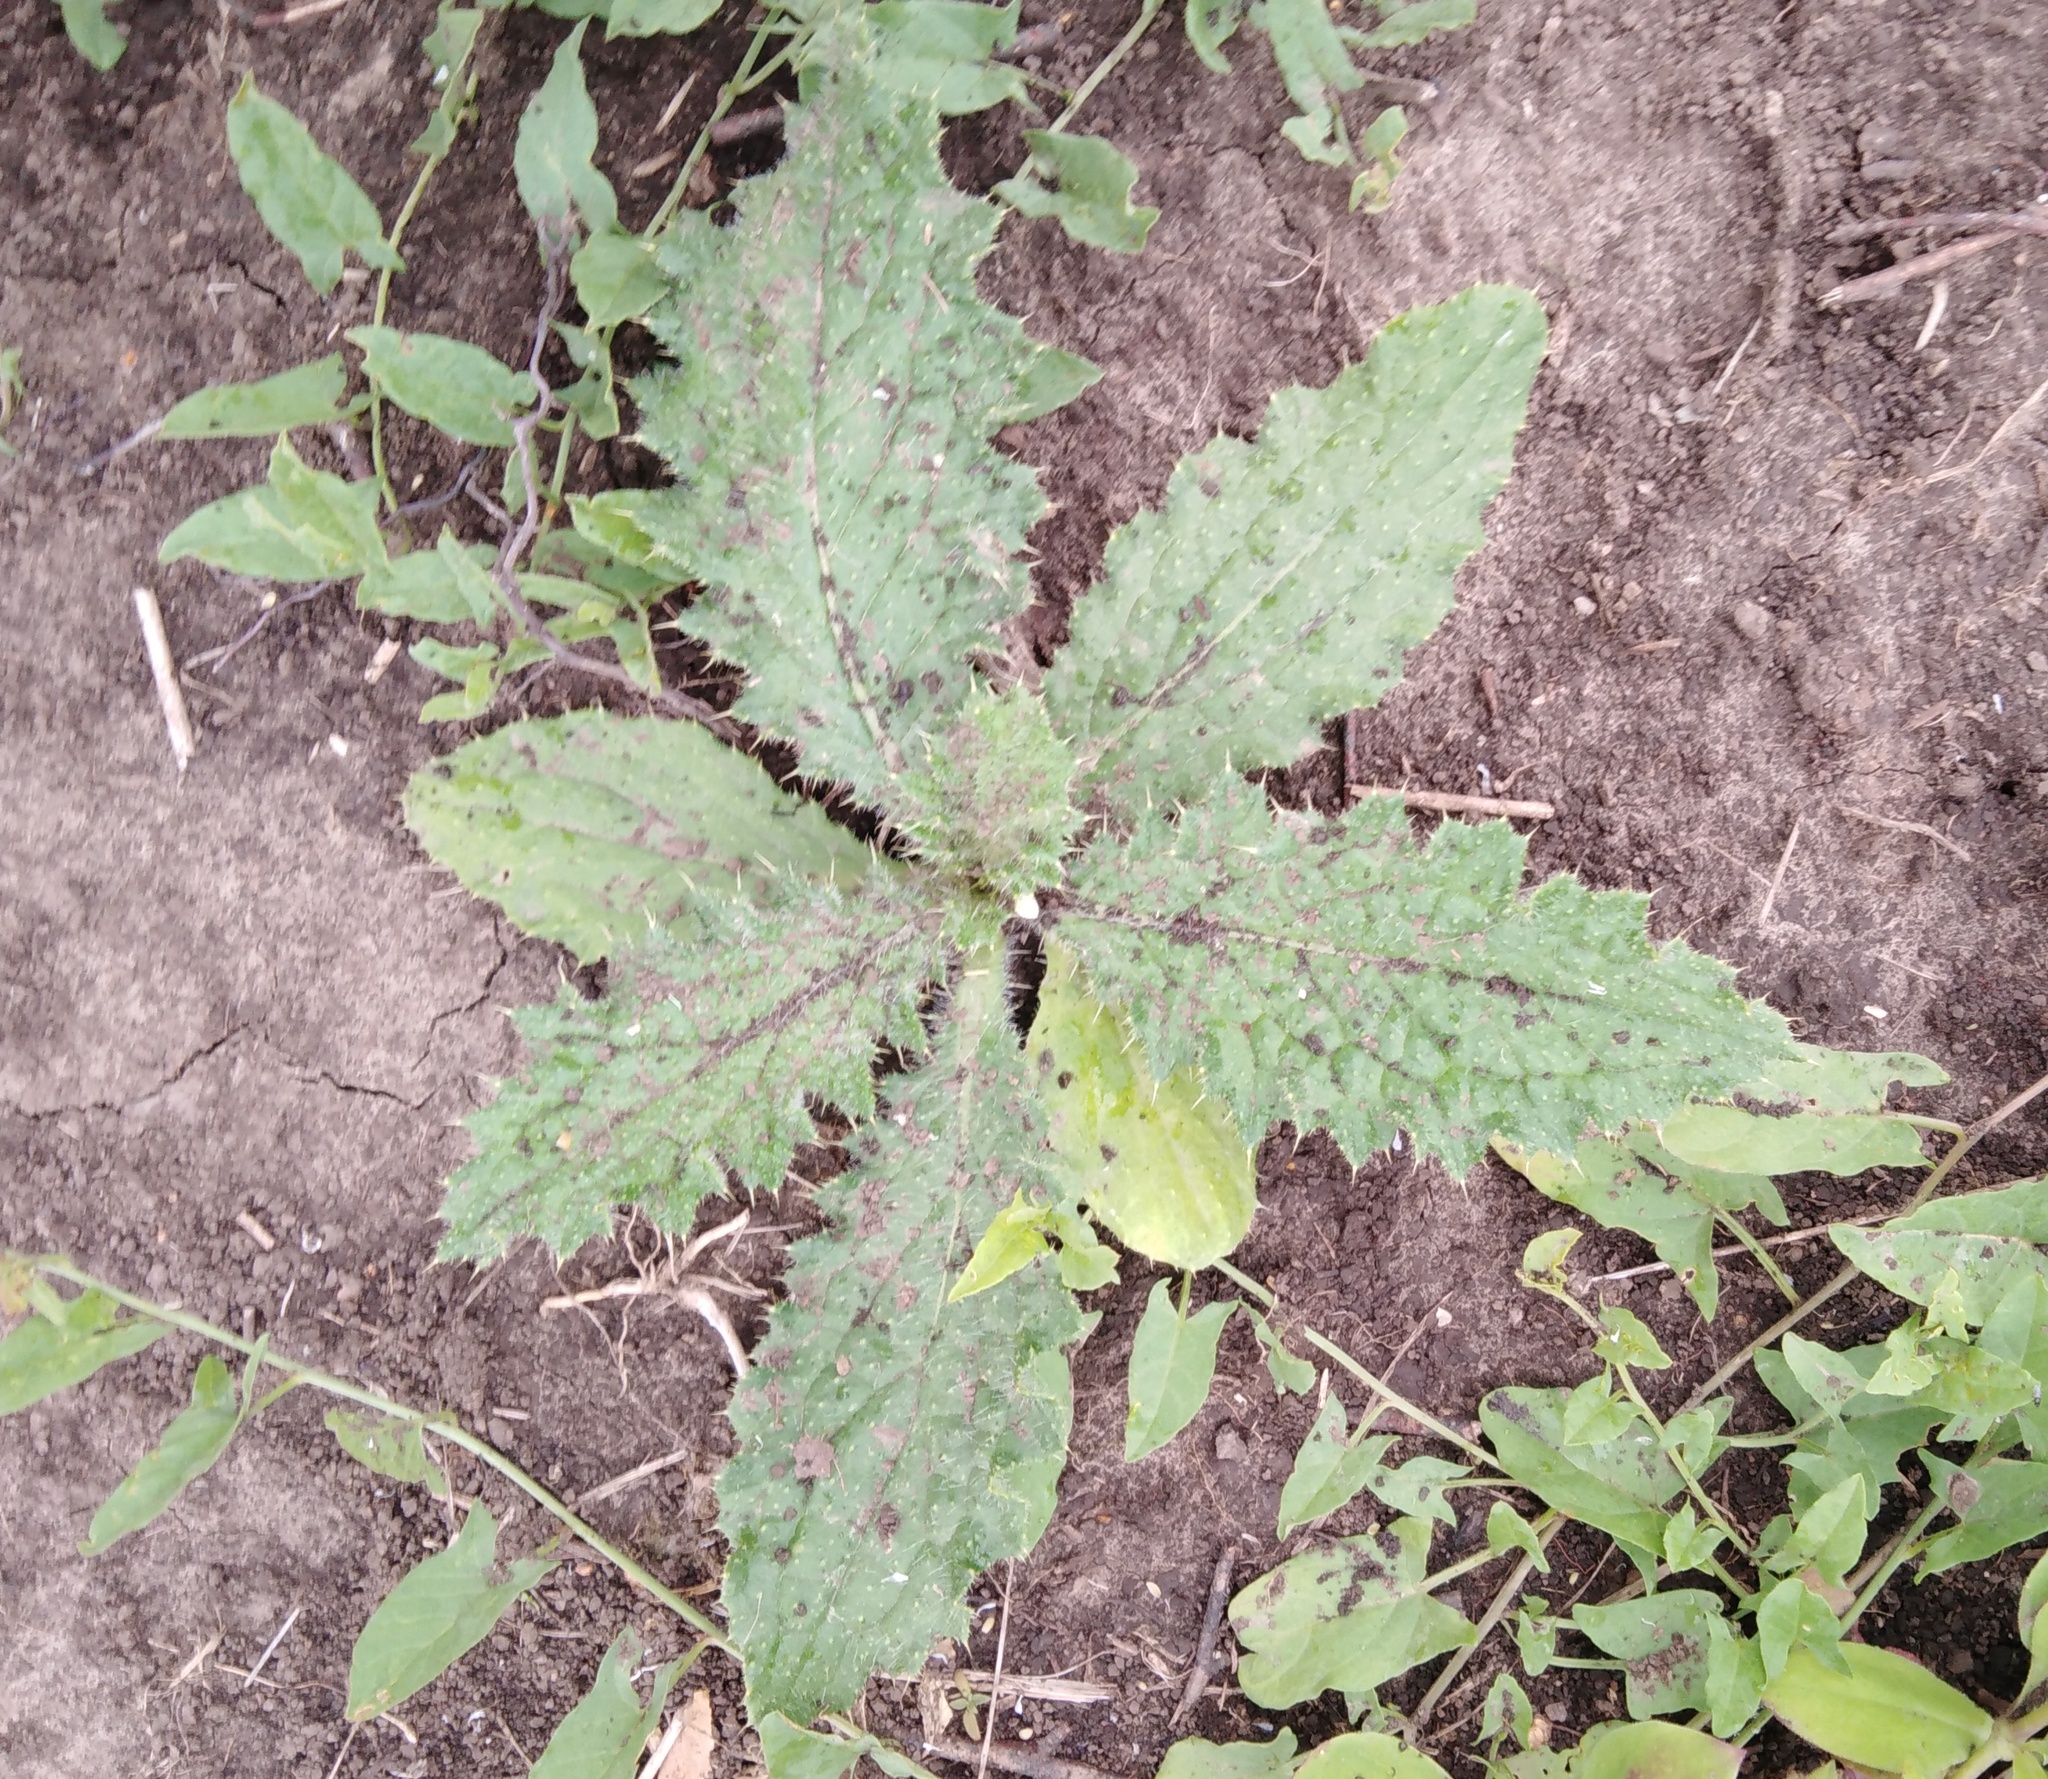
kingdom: Plantae
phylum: Tracheophyta
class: Magnoliopsida
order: Asterales
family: Asteraceae
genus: Cirsium
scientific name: Cirsium vulgare
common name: Bull thistle
